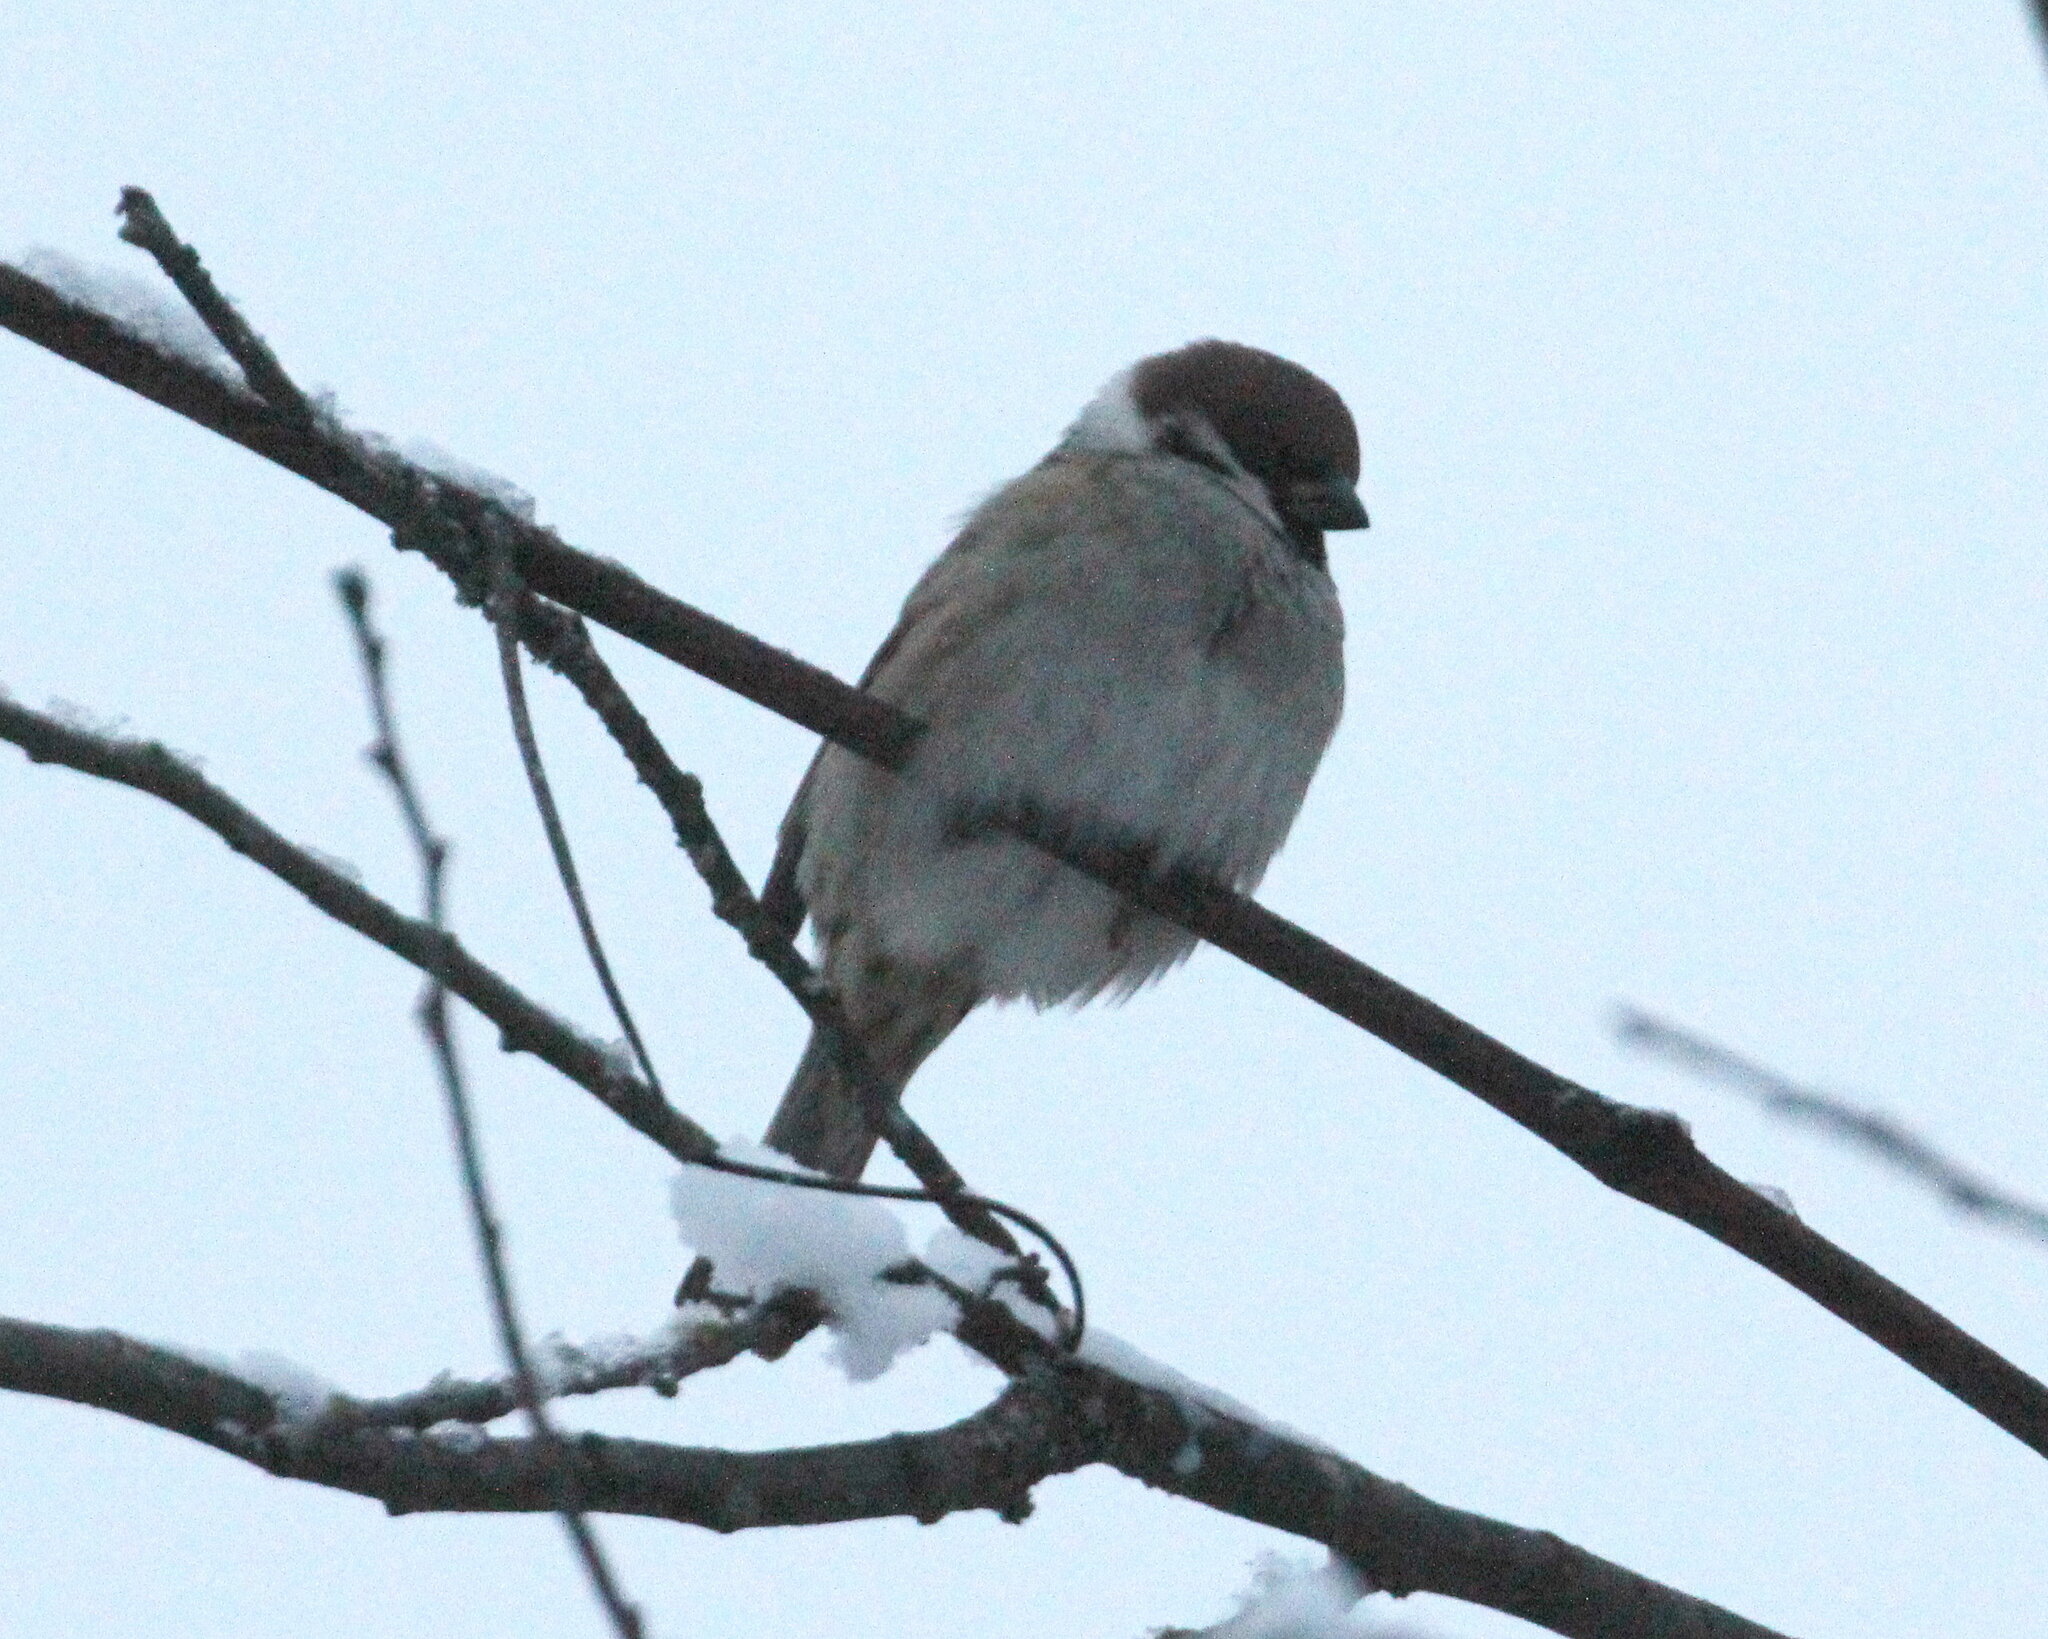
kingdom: Animalia
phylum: Chordata
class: Aves
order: Passeriformes
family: Passeridae
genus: Passer
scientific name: Passer montanus
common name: Eurasian tree sparrow
